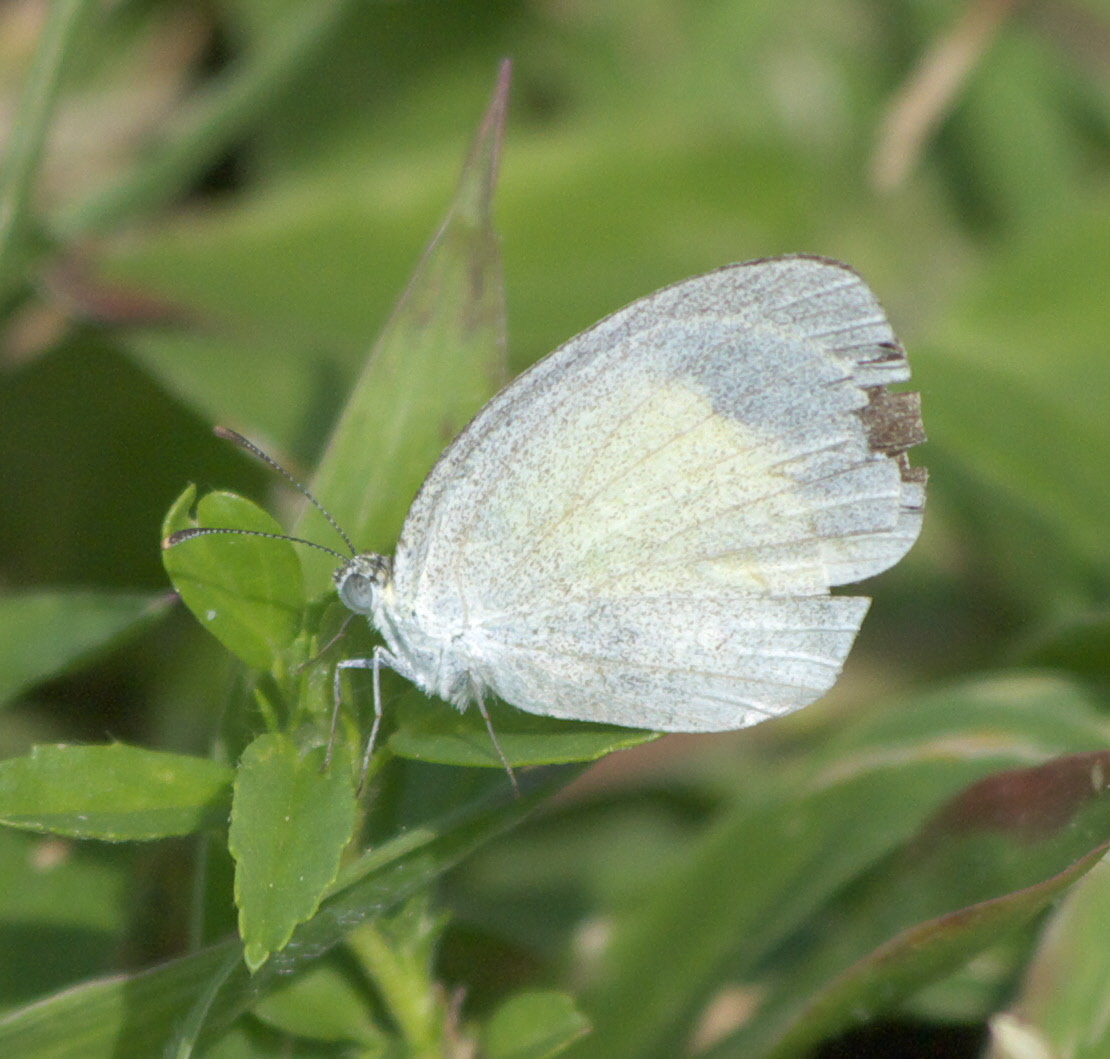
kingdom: Animalia
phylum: Arthropoda
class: Insecta
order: Lepidoptera
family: Pieridae
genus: Eurema
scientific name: Eurema daira
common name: Barred sulphur
